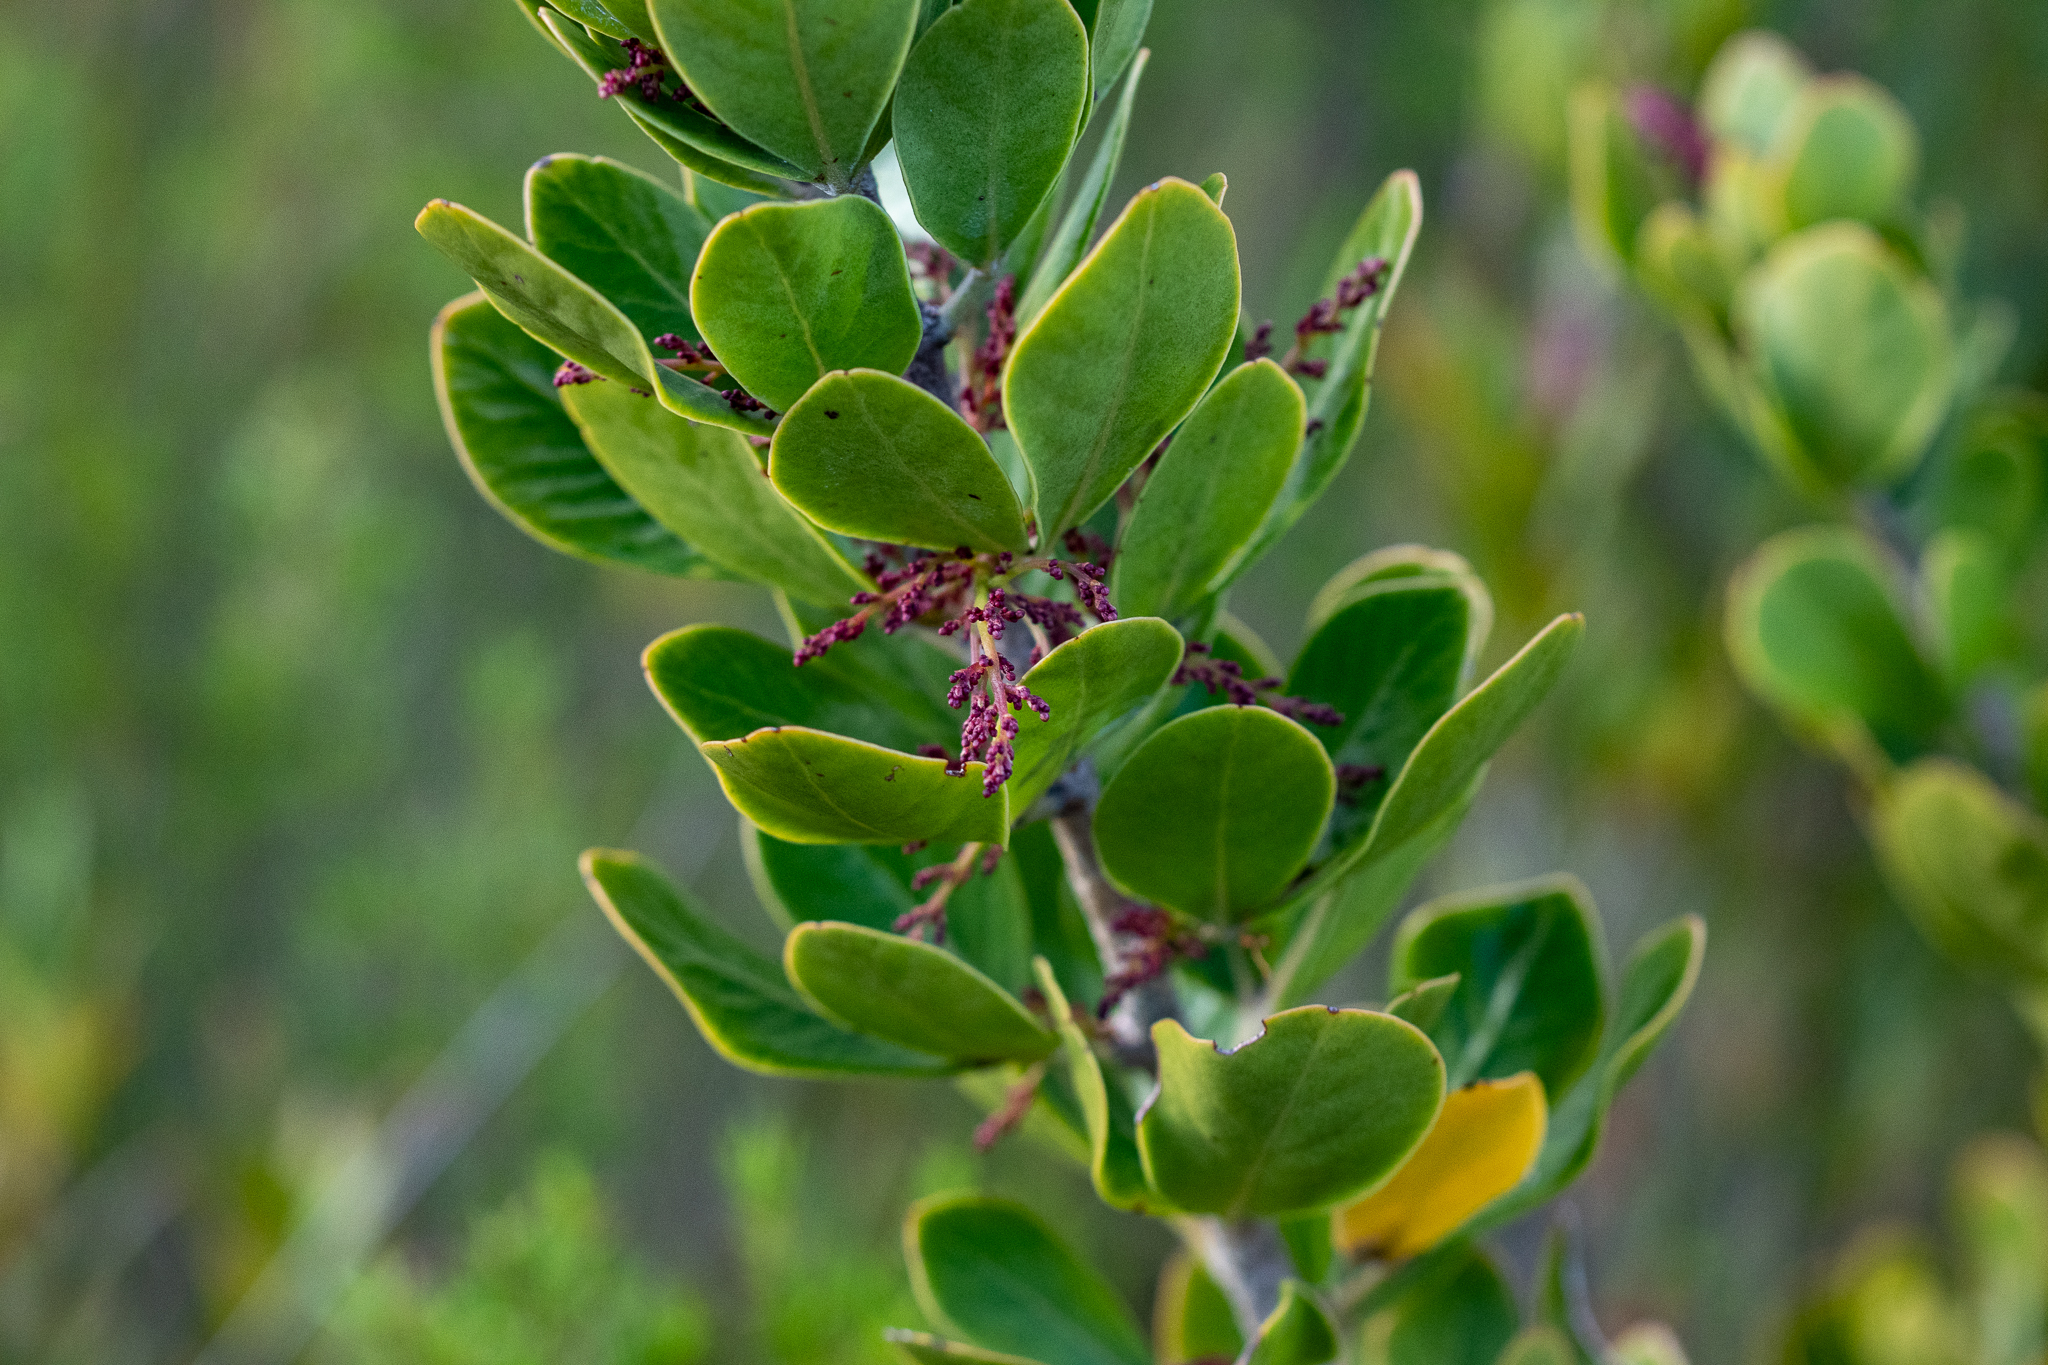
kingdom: Plantae
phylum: Tracheophyta
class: Magnoliopsida
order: Sapindales
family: Anacardiaceae
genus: Searsia
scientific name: Searsia scytophylla
